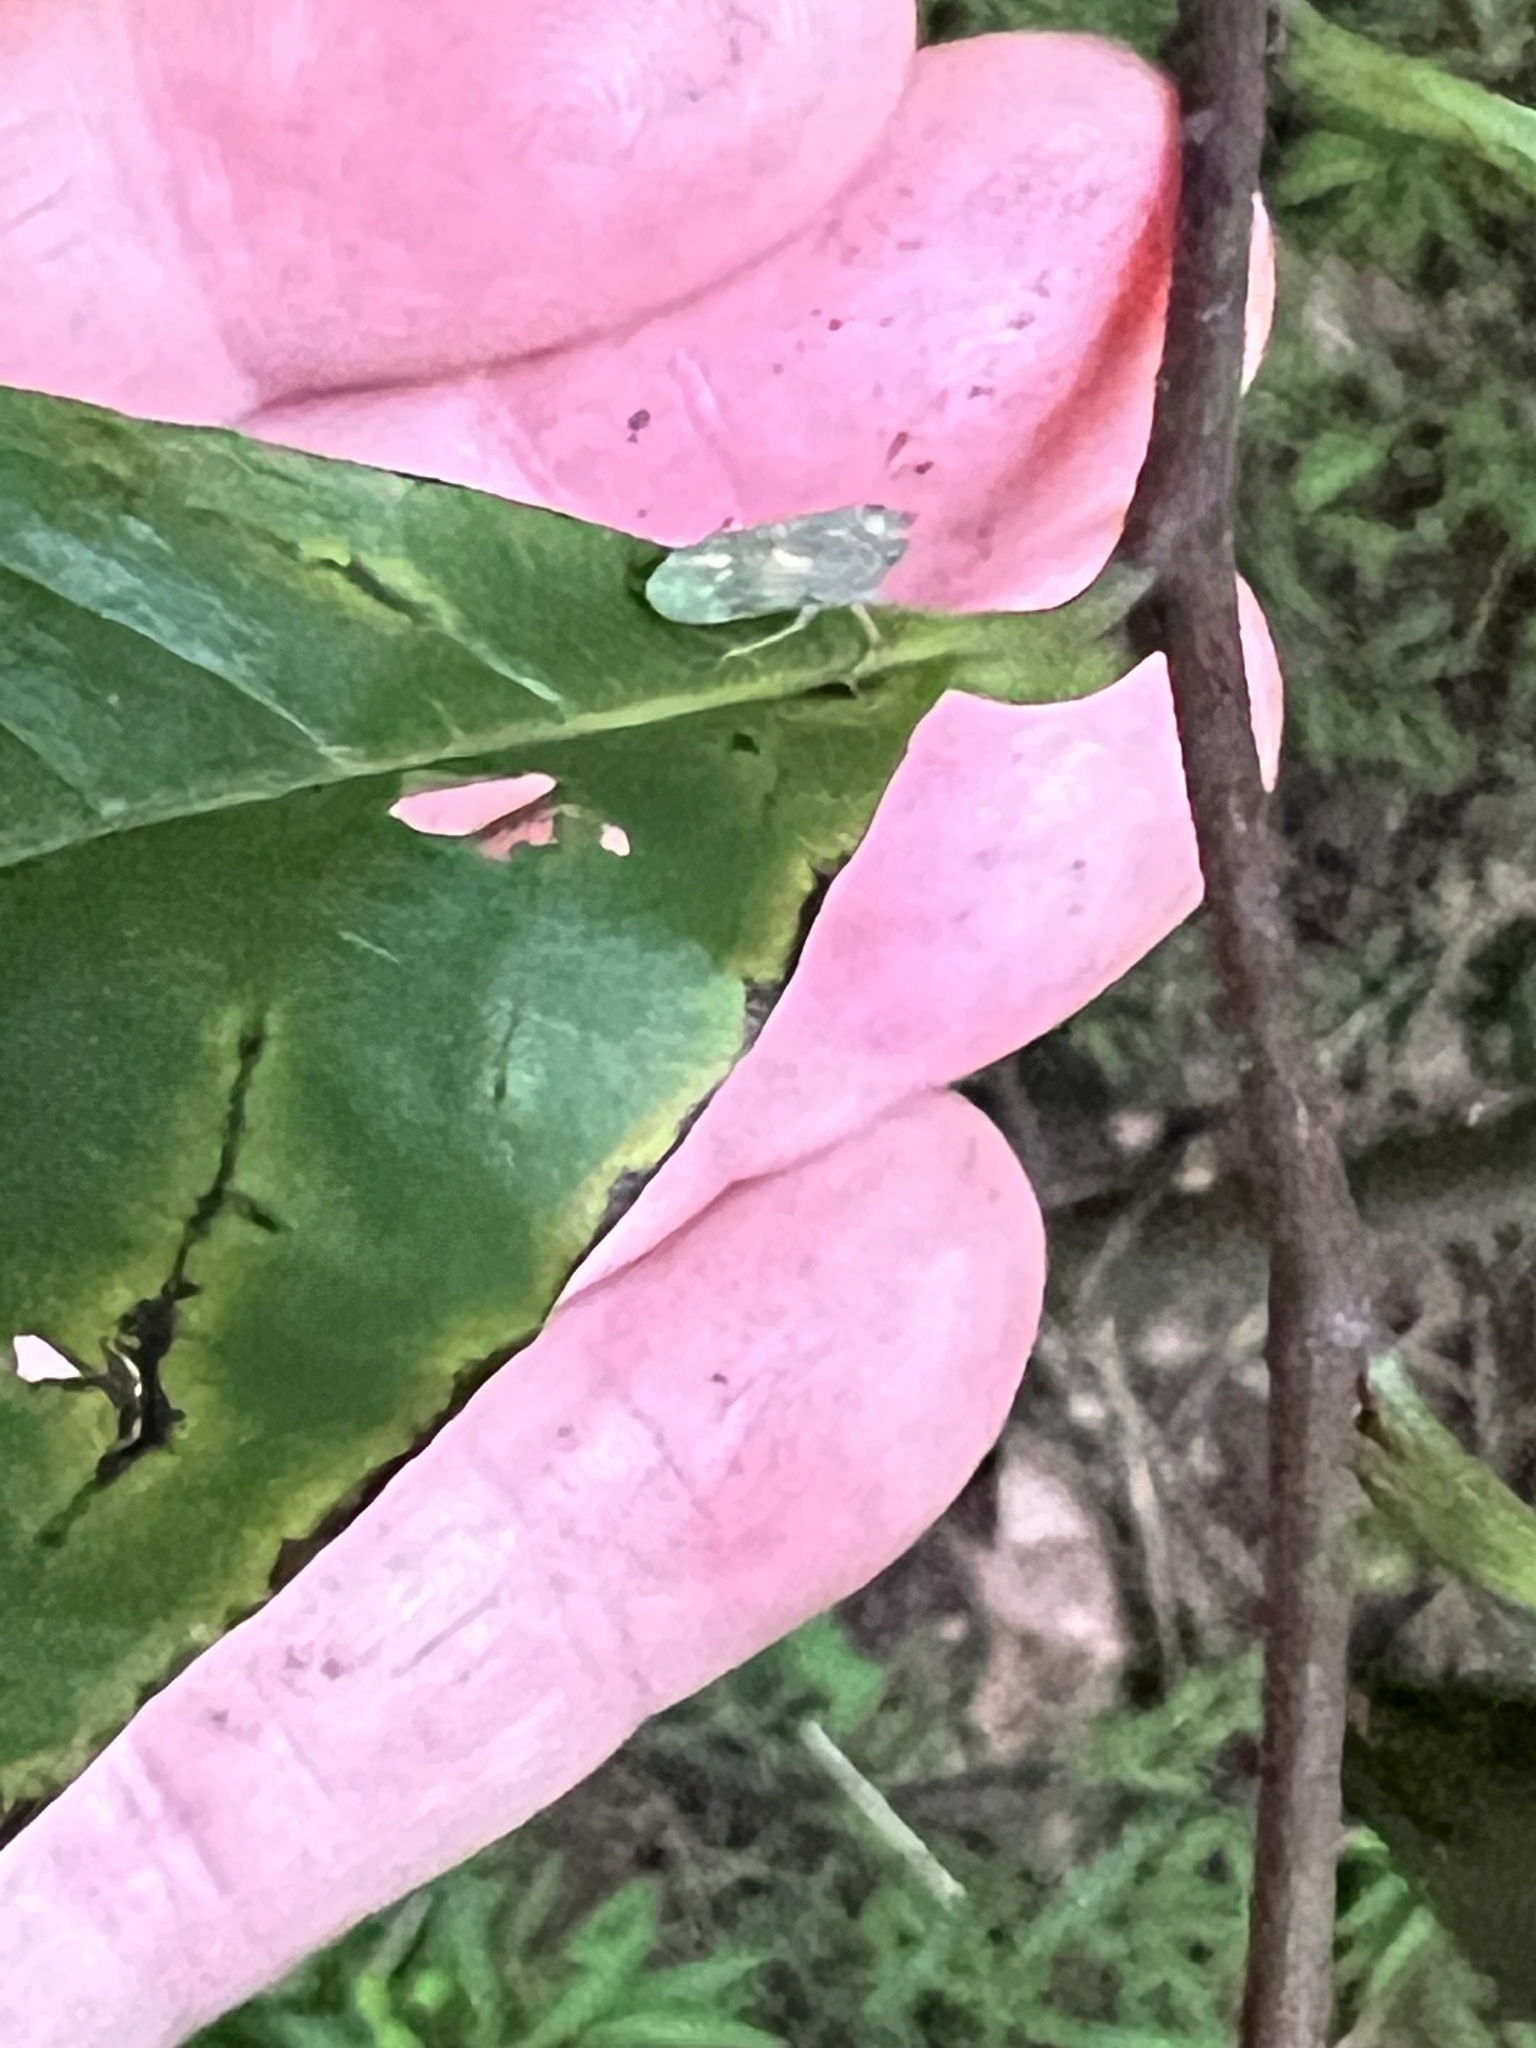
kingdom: Animalia
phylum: Arthropoda
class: Insecta
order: Hemiptera
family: Cicadellidae
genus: Jikradia
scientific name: Jikradia olitoria
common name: Coppery leafhopper
